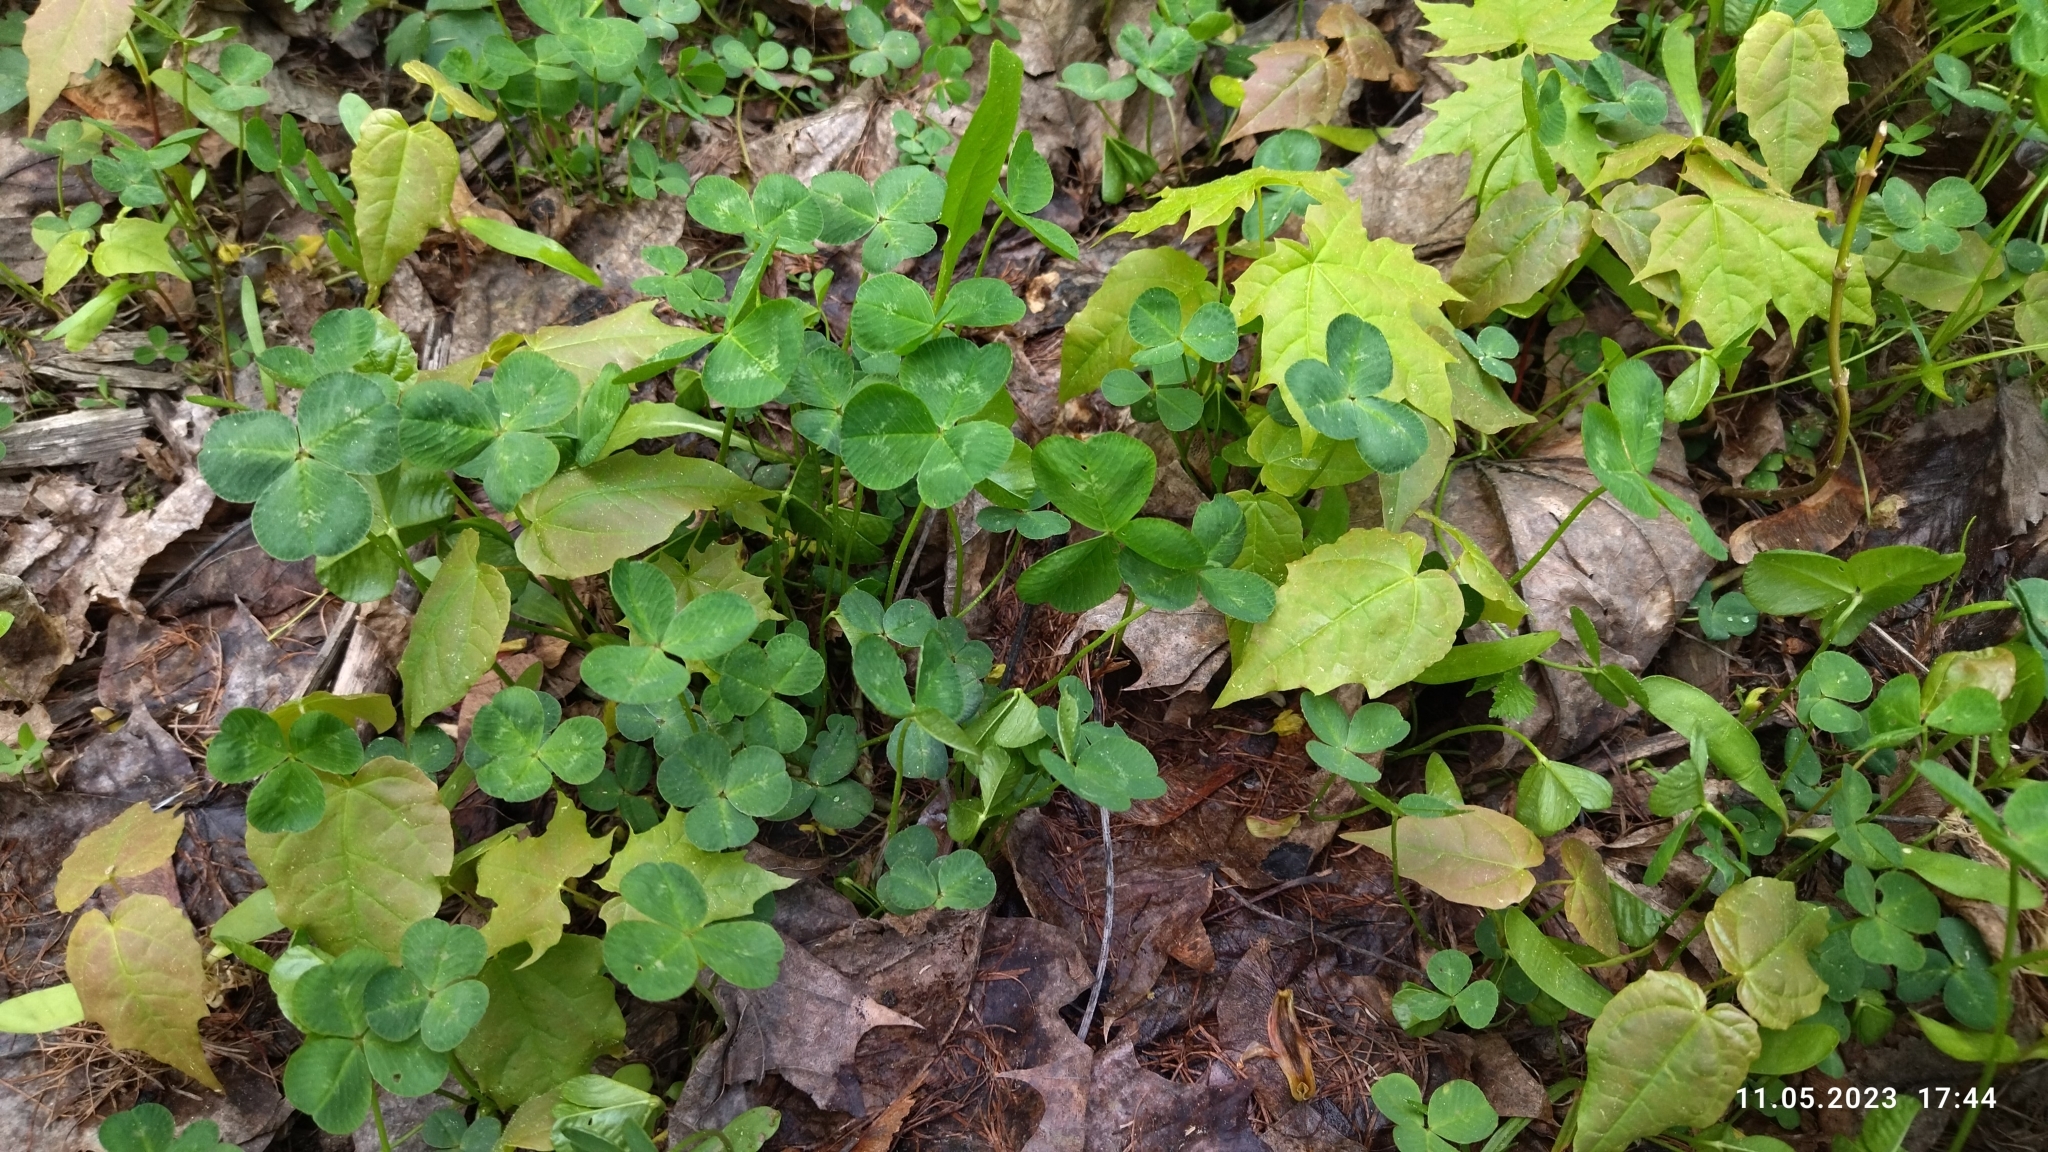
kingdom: Plantae
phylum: Tracheophyta
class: Magnoliopsida
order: Fabales
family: Fabaceae
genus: Trifolium
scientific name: Trifolium repens
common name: White clover
